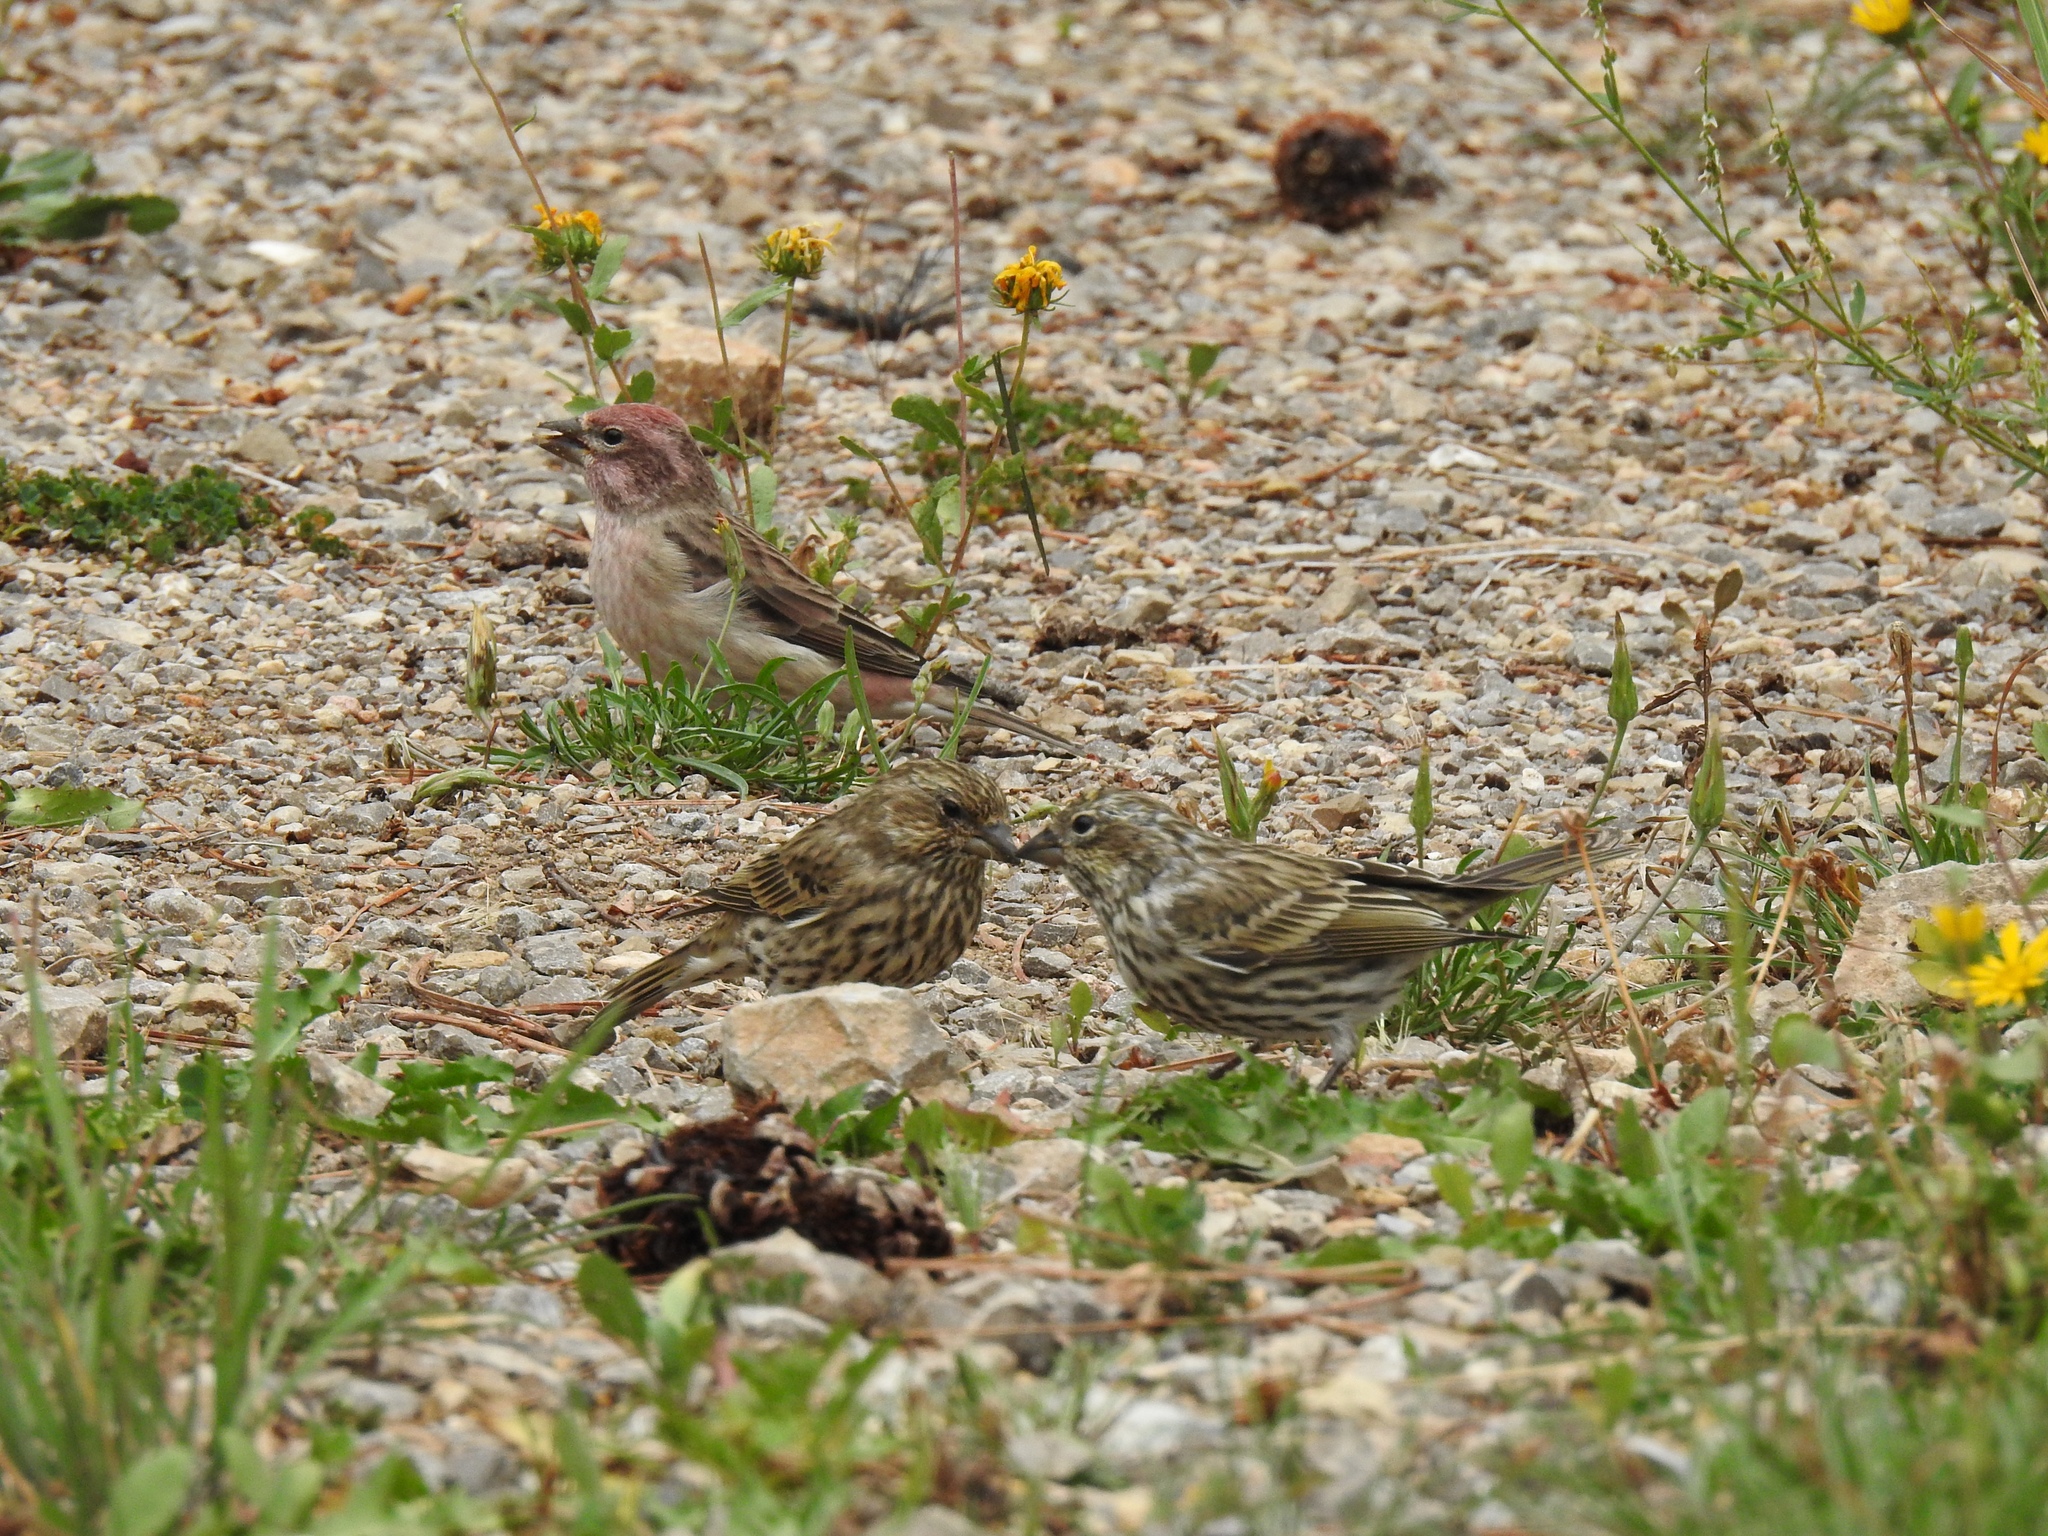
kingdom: Animalia
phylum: Chordata
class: Aves
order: Passeriformes
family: Fringillidae
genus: Haemorhous
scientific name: Haemorhous cassinii
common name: Cassin's finch
